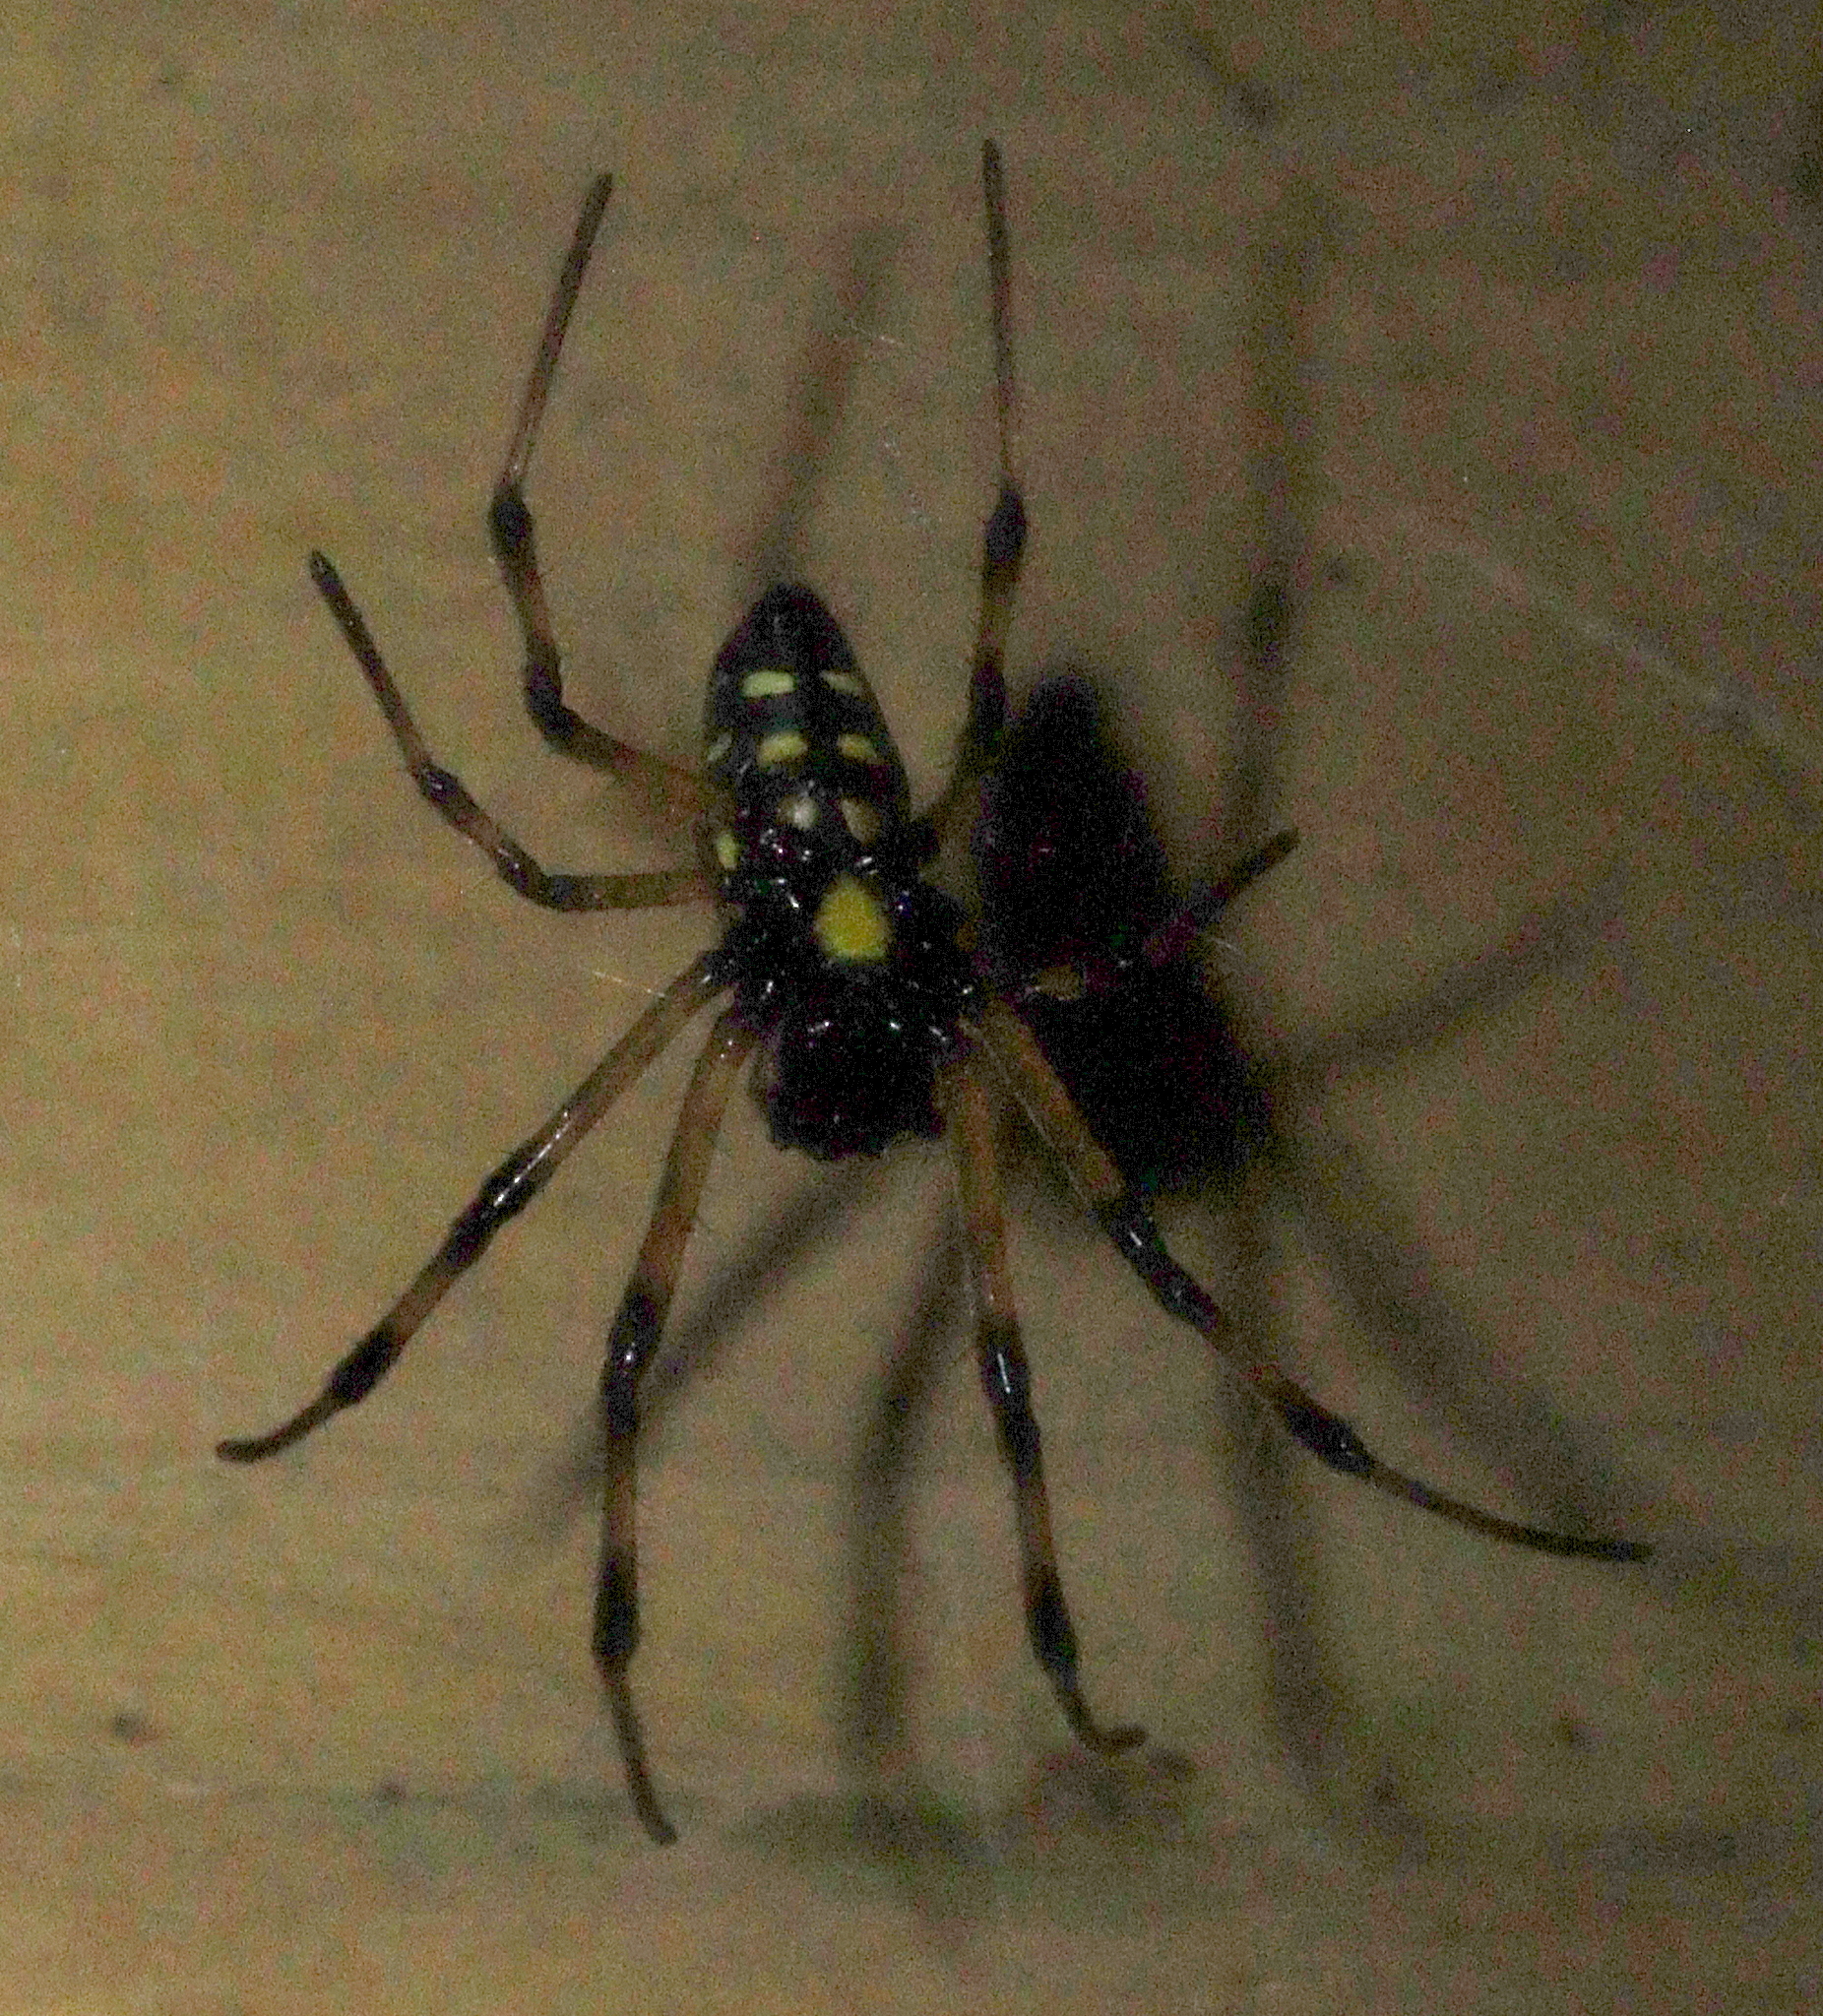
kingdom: Animalia
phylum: Arthropoda
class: Arachnida
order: Araneae
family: Araneidae
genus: Nephilingis
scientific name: Nephilingis cruentata
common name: African hermit spider
